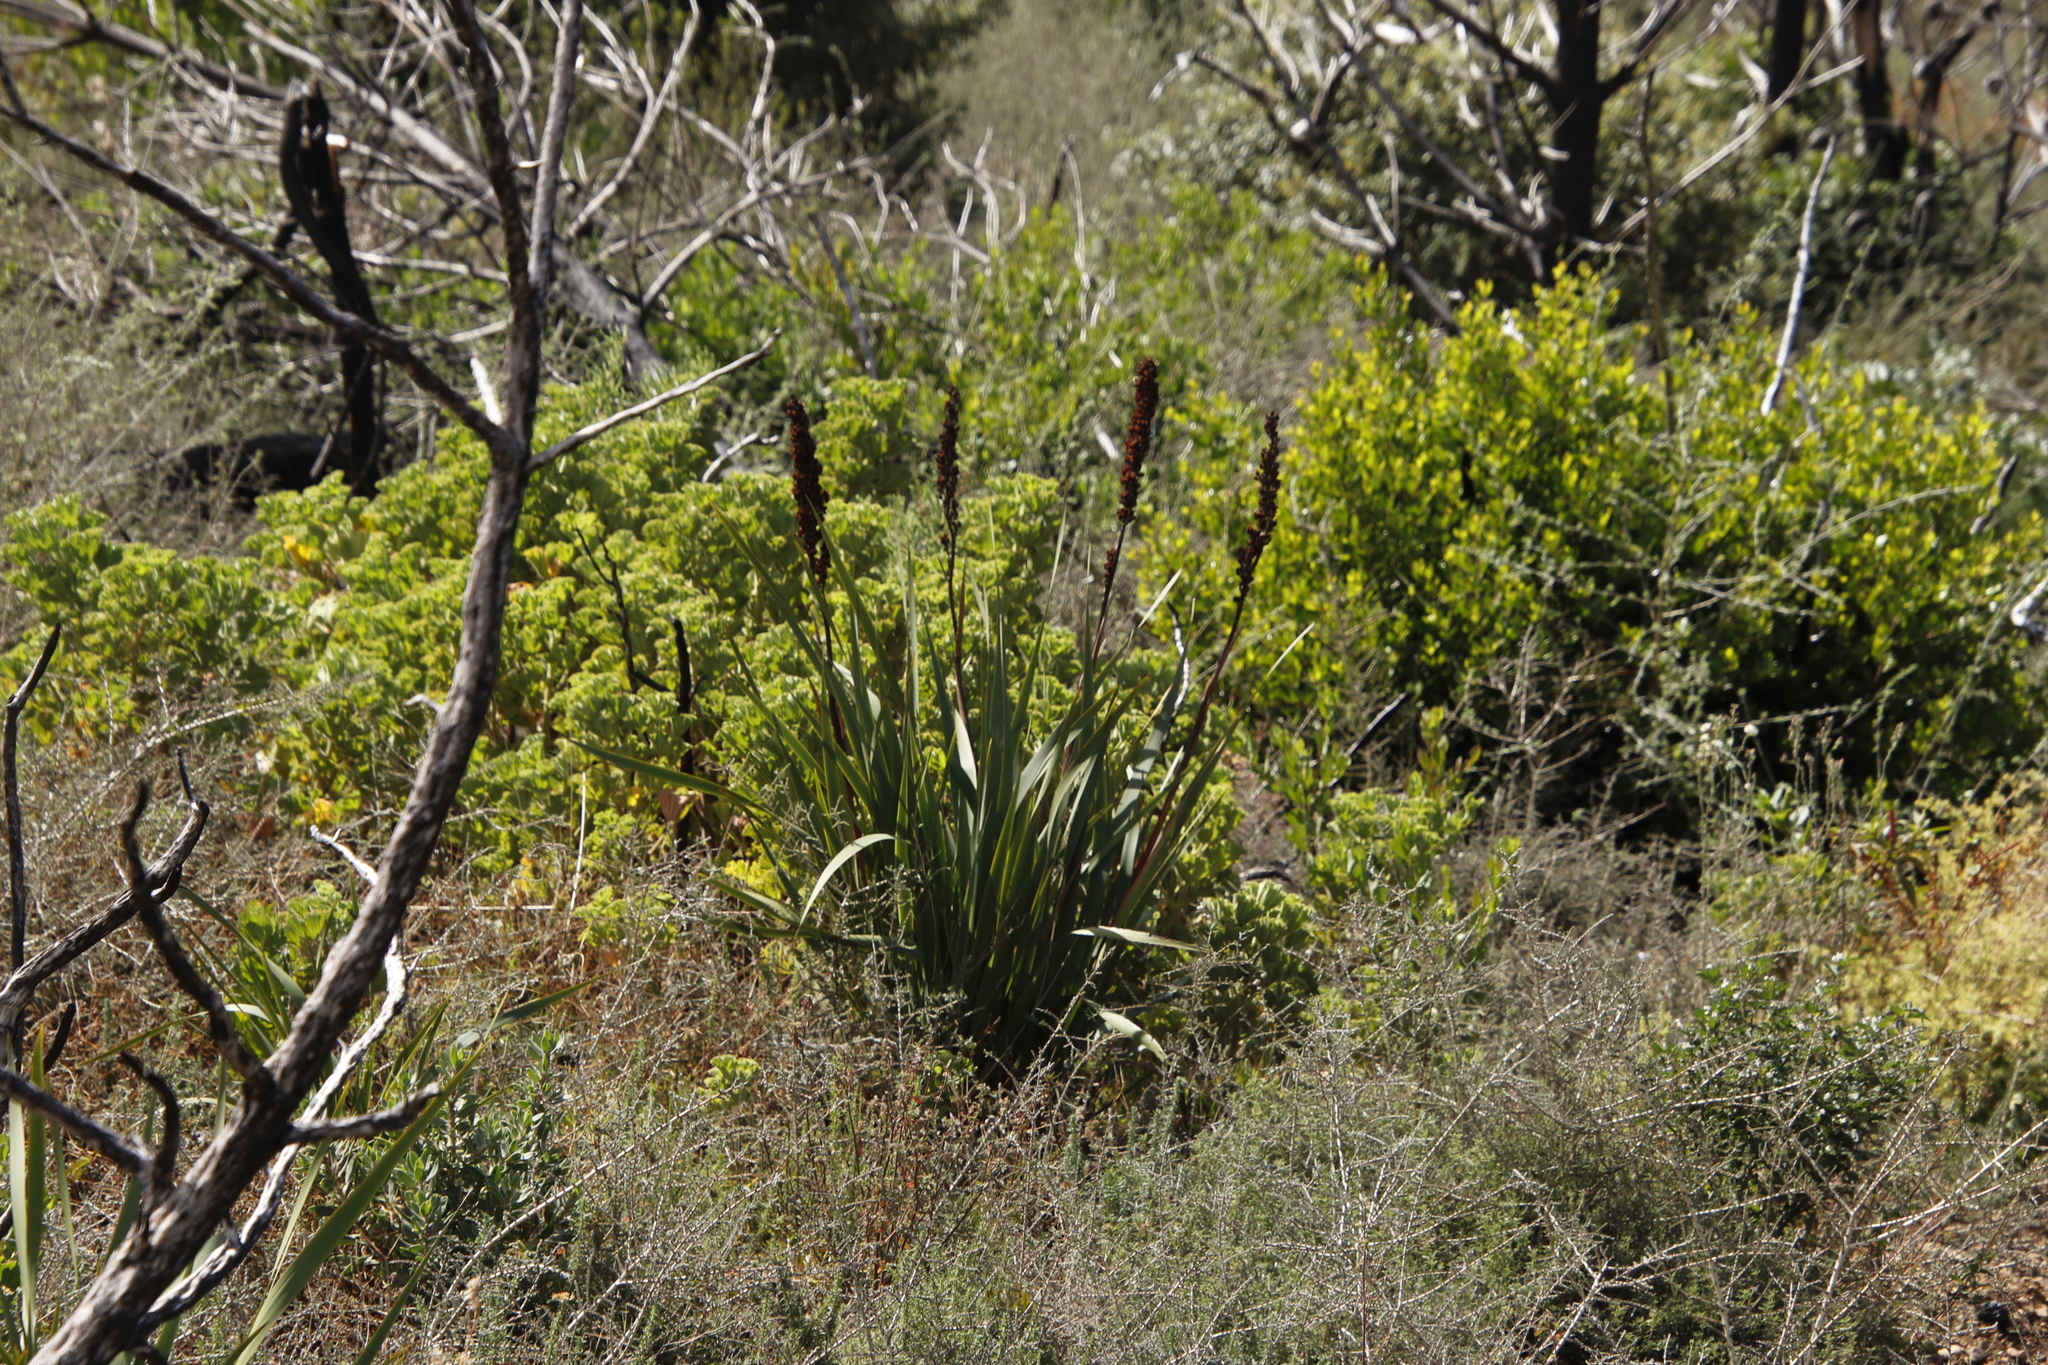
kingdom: Plantae
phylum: Tracheophyta
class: Liliopsida
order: Asparagales
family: Iridaceae
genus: Aristea
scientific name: Aristea capitata
